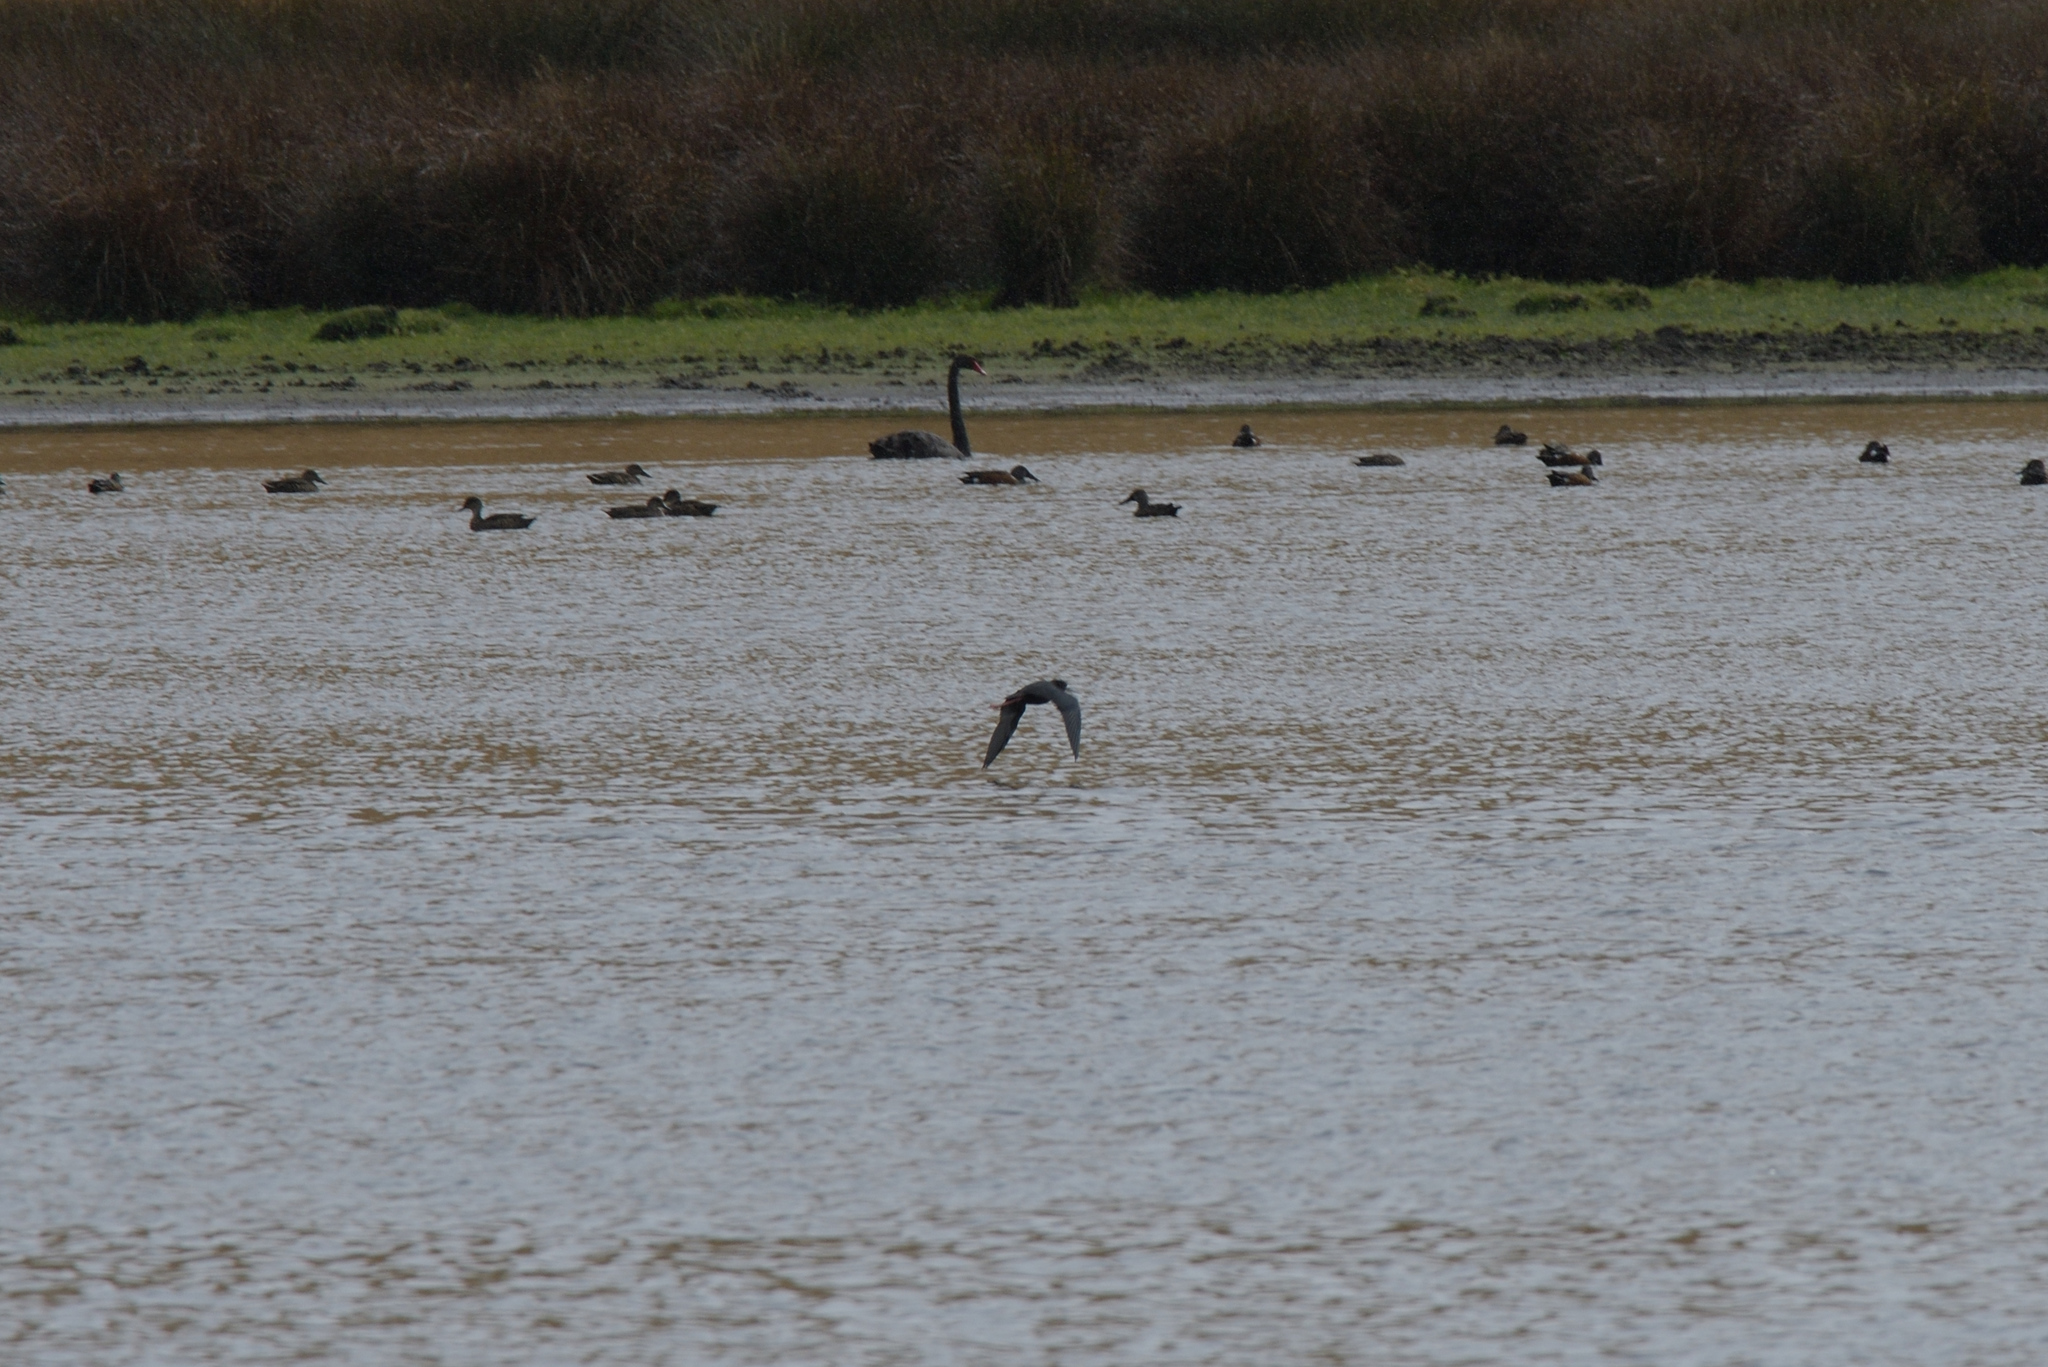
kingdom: Animalia
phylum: Chordata
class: Aves
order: Charadriiformes
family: Recurvirostridae
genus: Himantopus
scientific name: Himantopus novaezelandiae
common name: Black stilt
